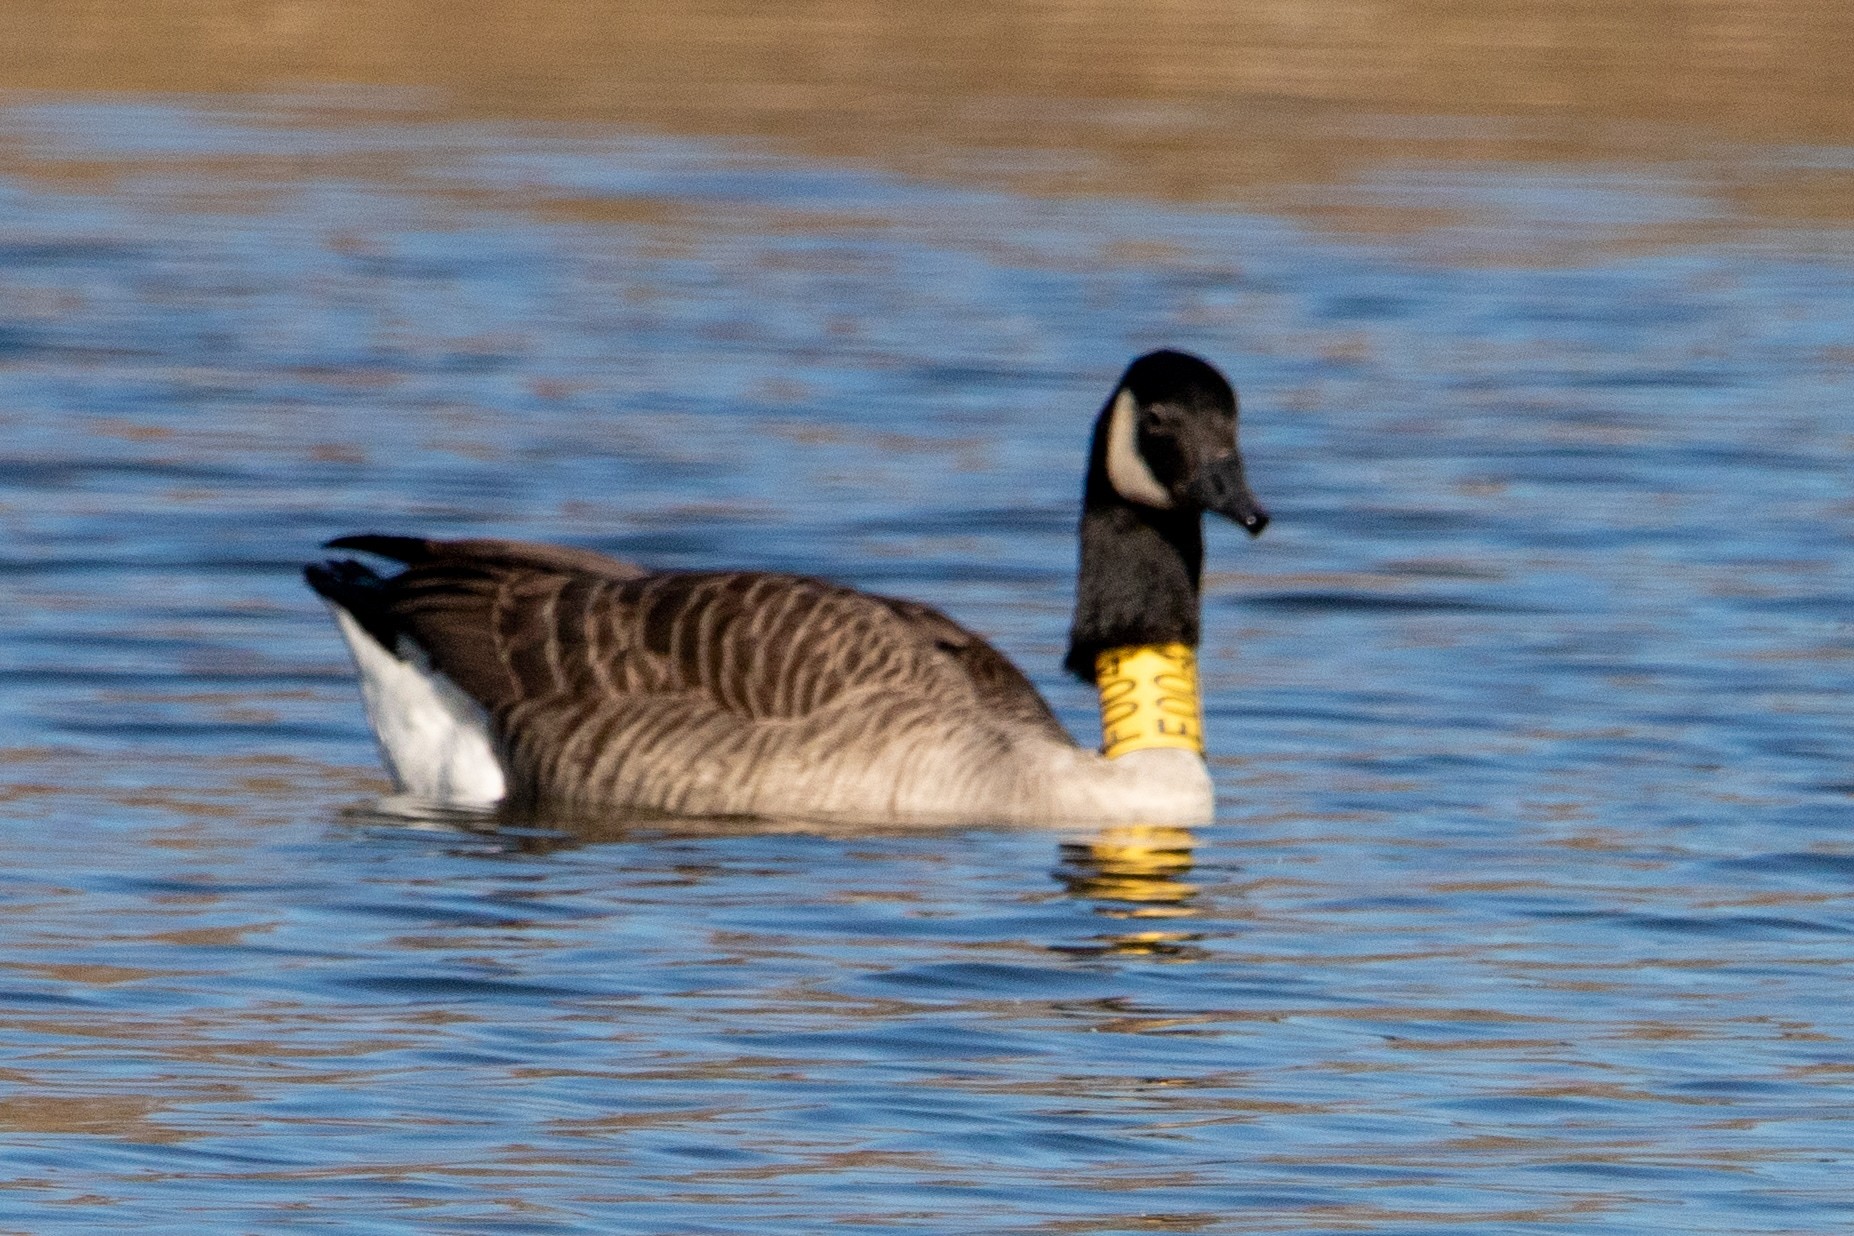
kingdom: Animalia
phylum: Chordata
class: Aves
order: Anseriformes
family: Anatidae
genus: Branta
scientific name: Branta canadensis
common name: Canada goose
